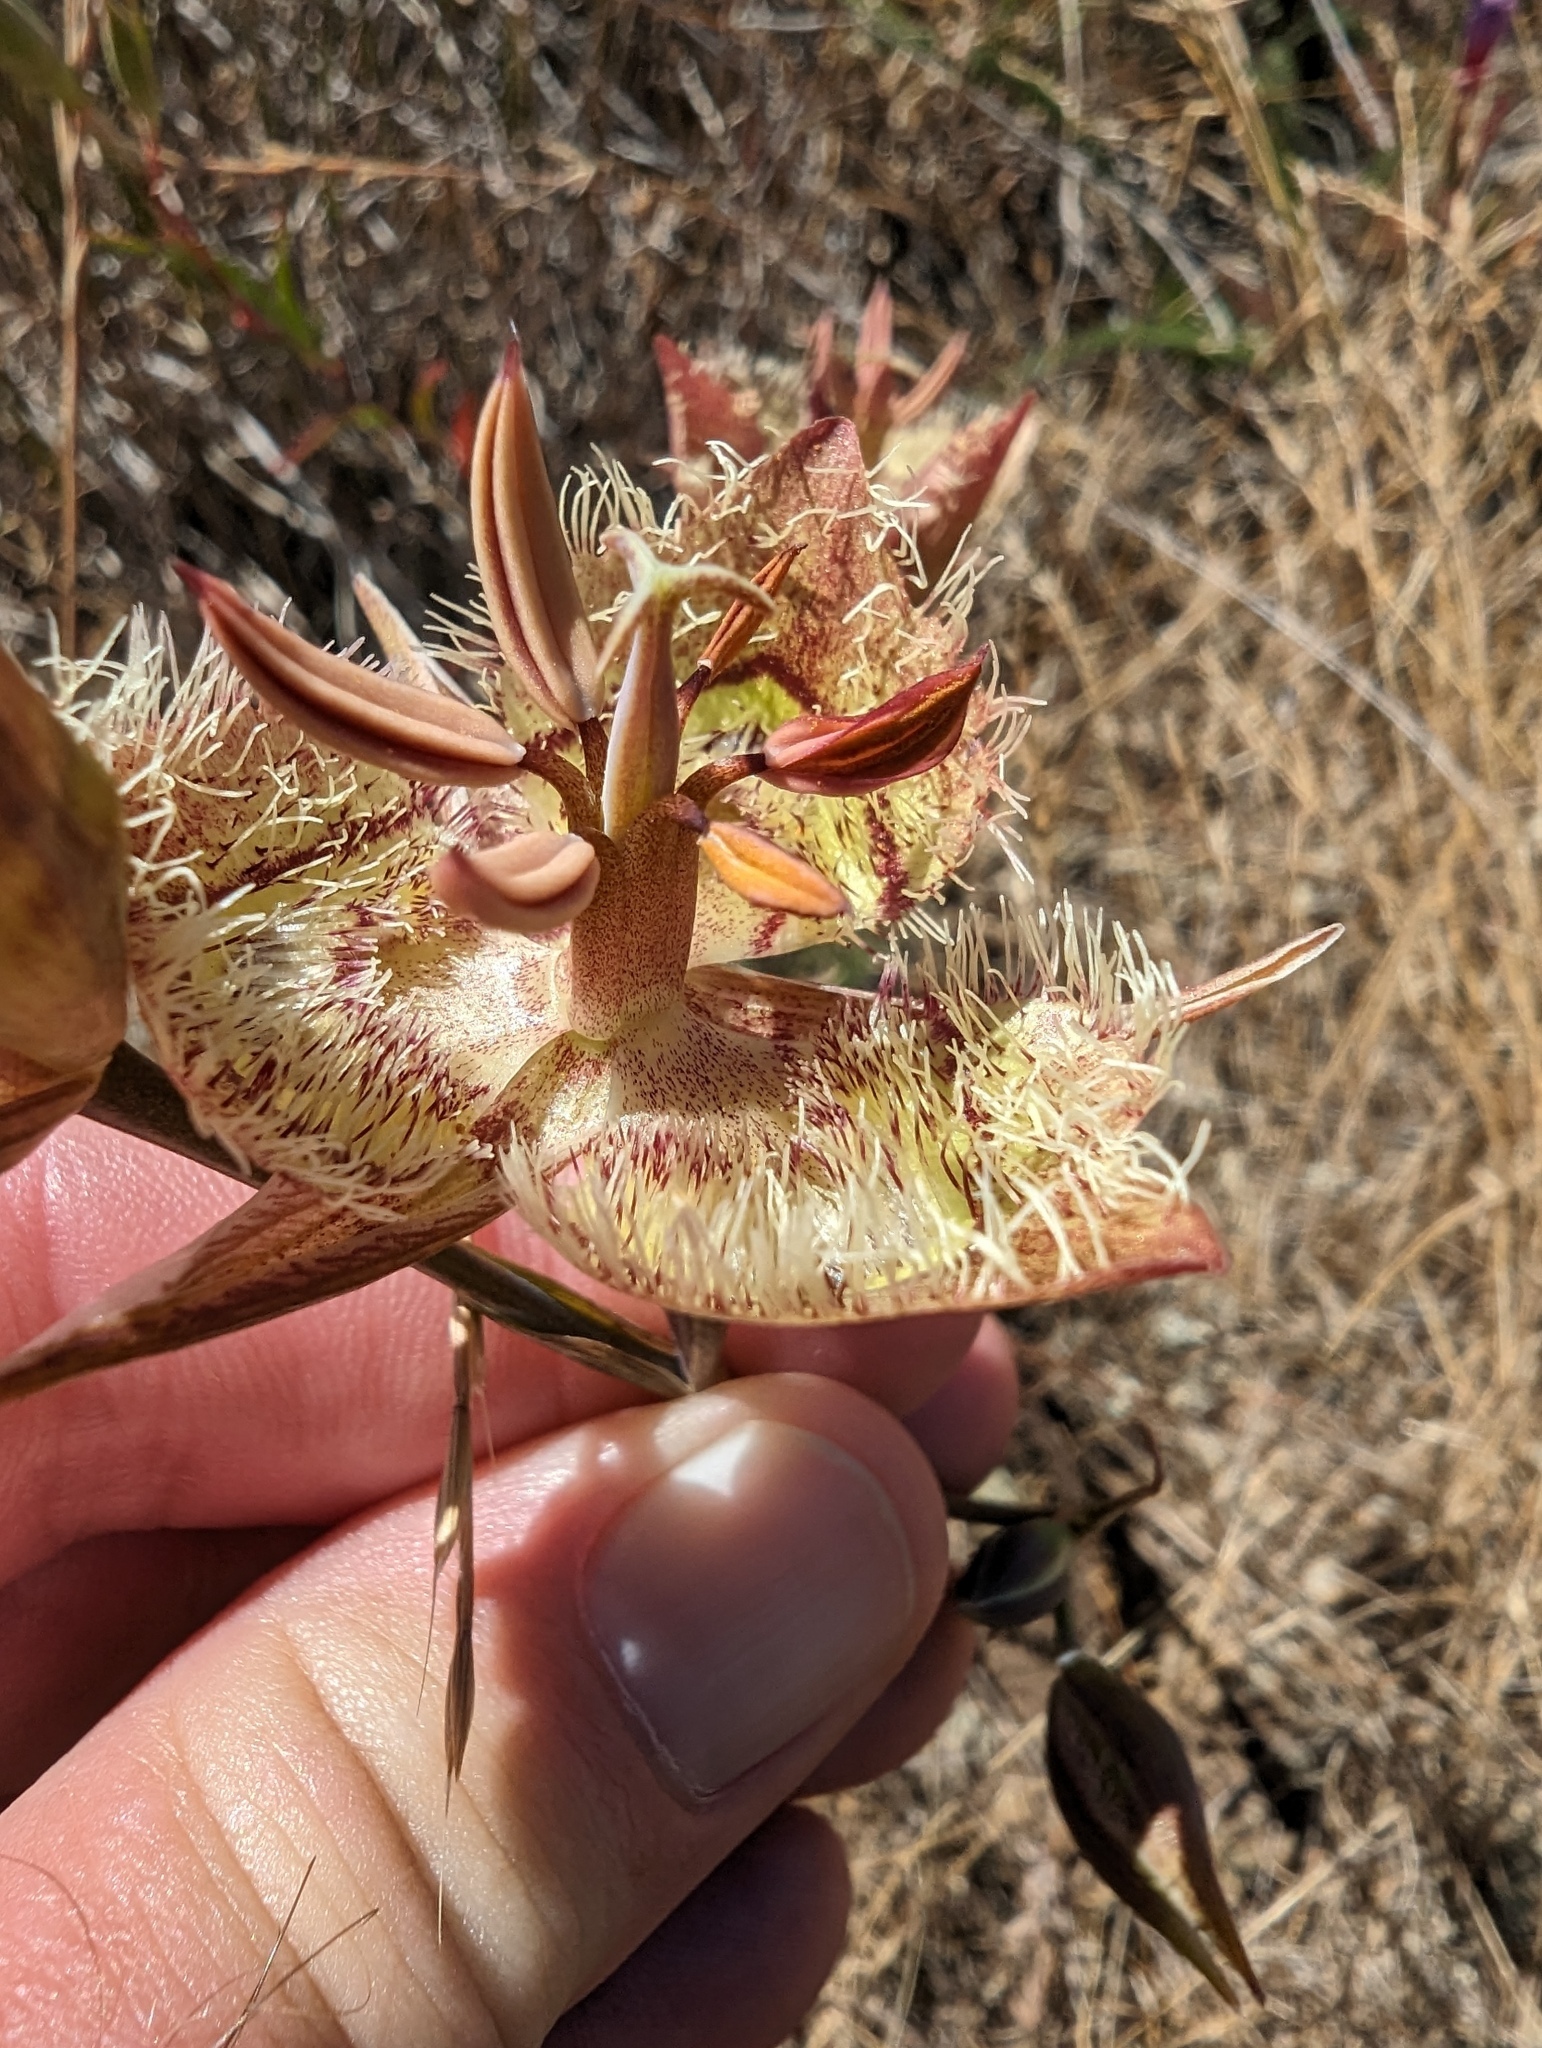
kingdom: Plantae
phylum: Tracheophyta
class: Liliopsida
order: Liliales
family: Liliaceae
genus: Calochortus
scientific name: Calochortus tiburonensis
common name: Tiburon mariposa-lily
